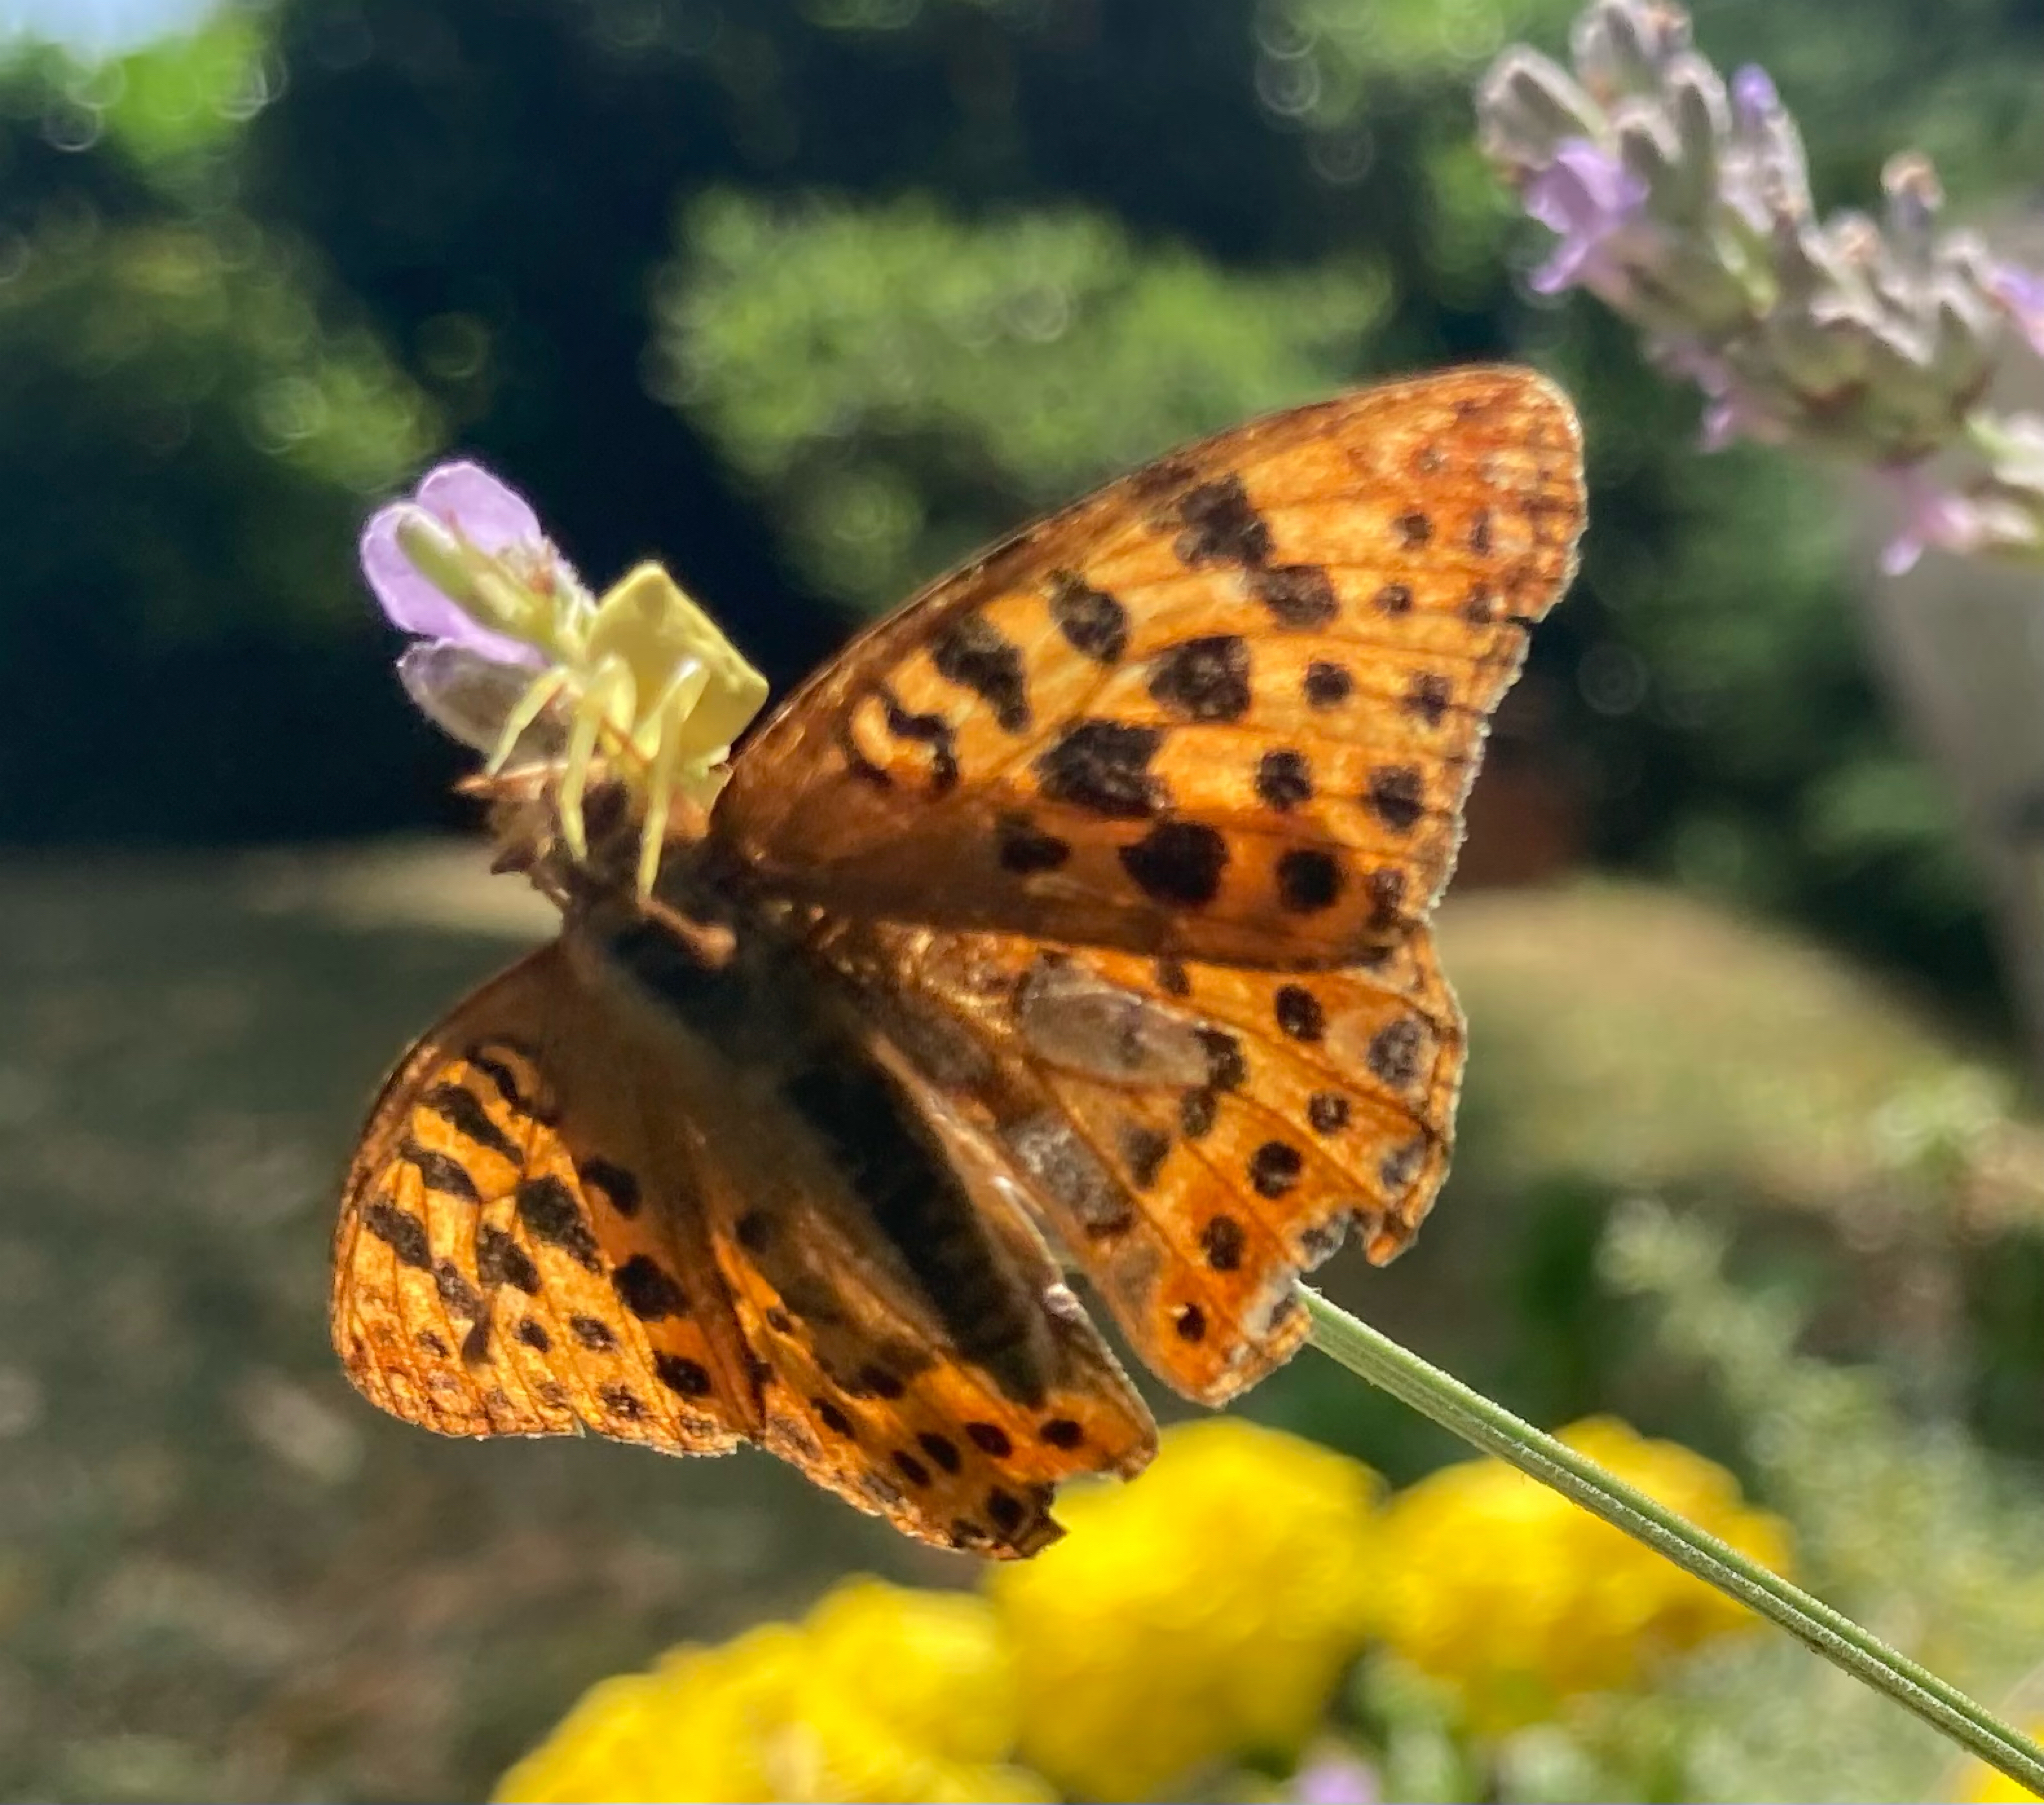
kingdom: Animalia
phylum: Arthropoda
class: Insecta
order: Lepidoptera
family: Nymphalidae
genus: Issoria
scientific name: Issoria lathonia
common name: Queen of spain fritillary
